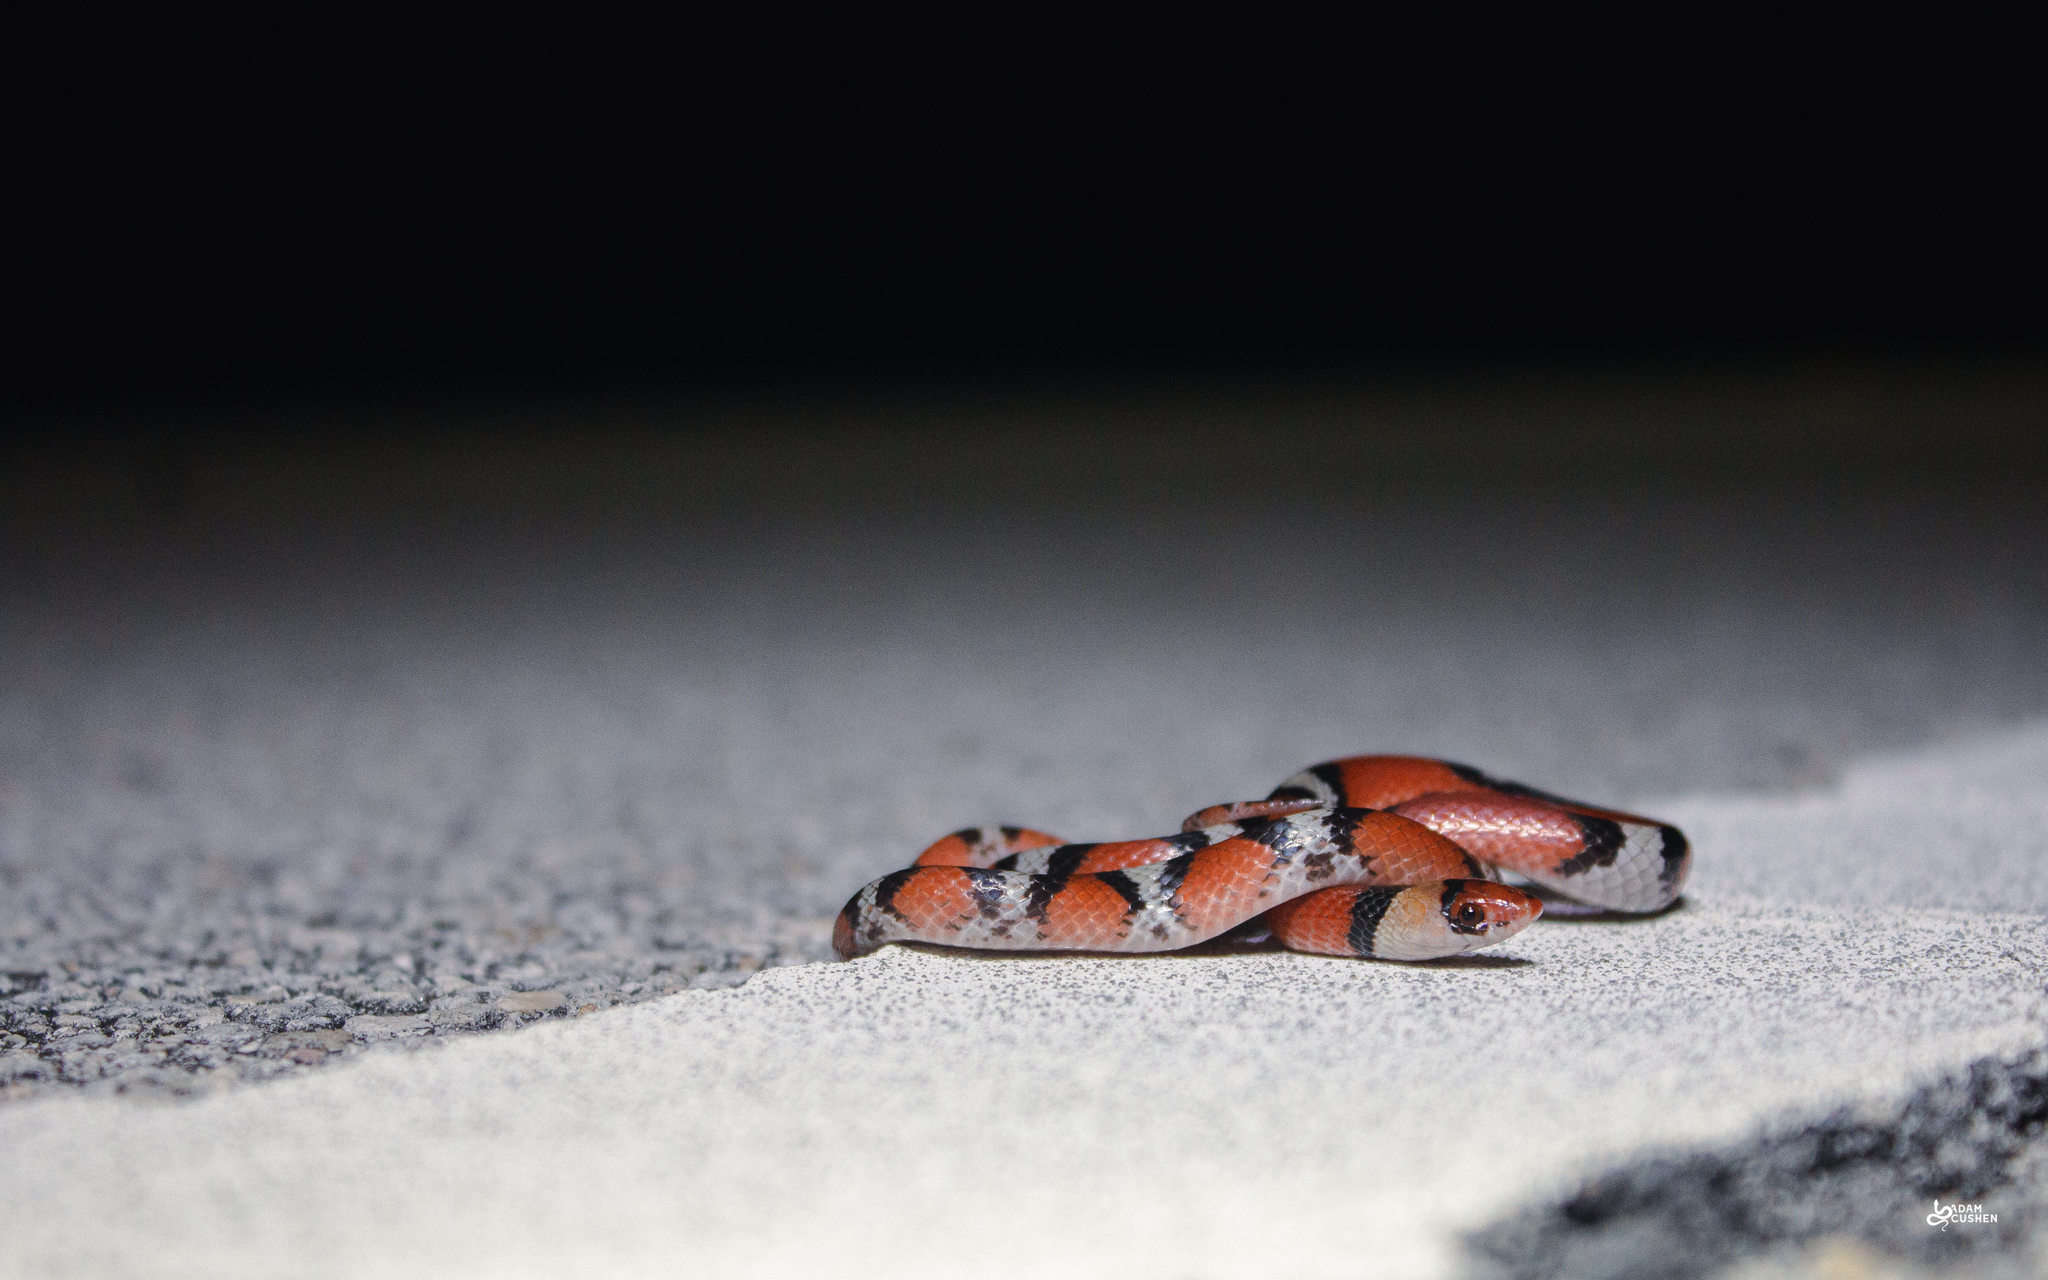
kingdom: Animalia
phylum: Chordata
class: Squamata
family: Colubridae
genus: Cemophora
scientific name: Cemophora coccinea
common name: Scarlet snake
